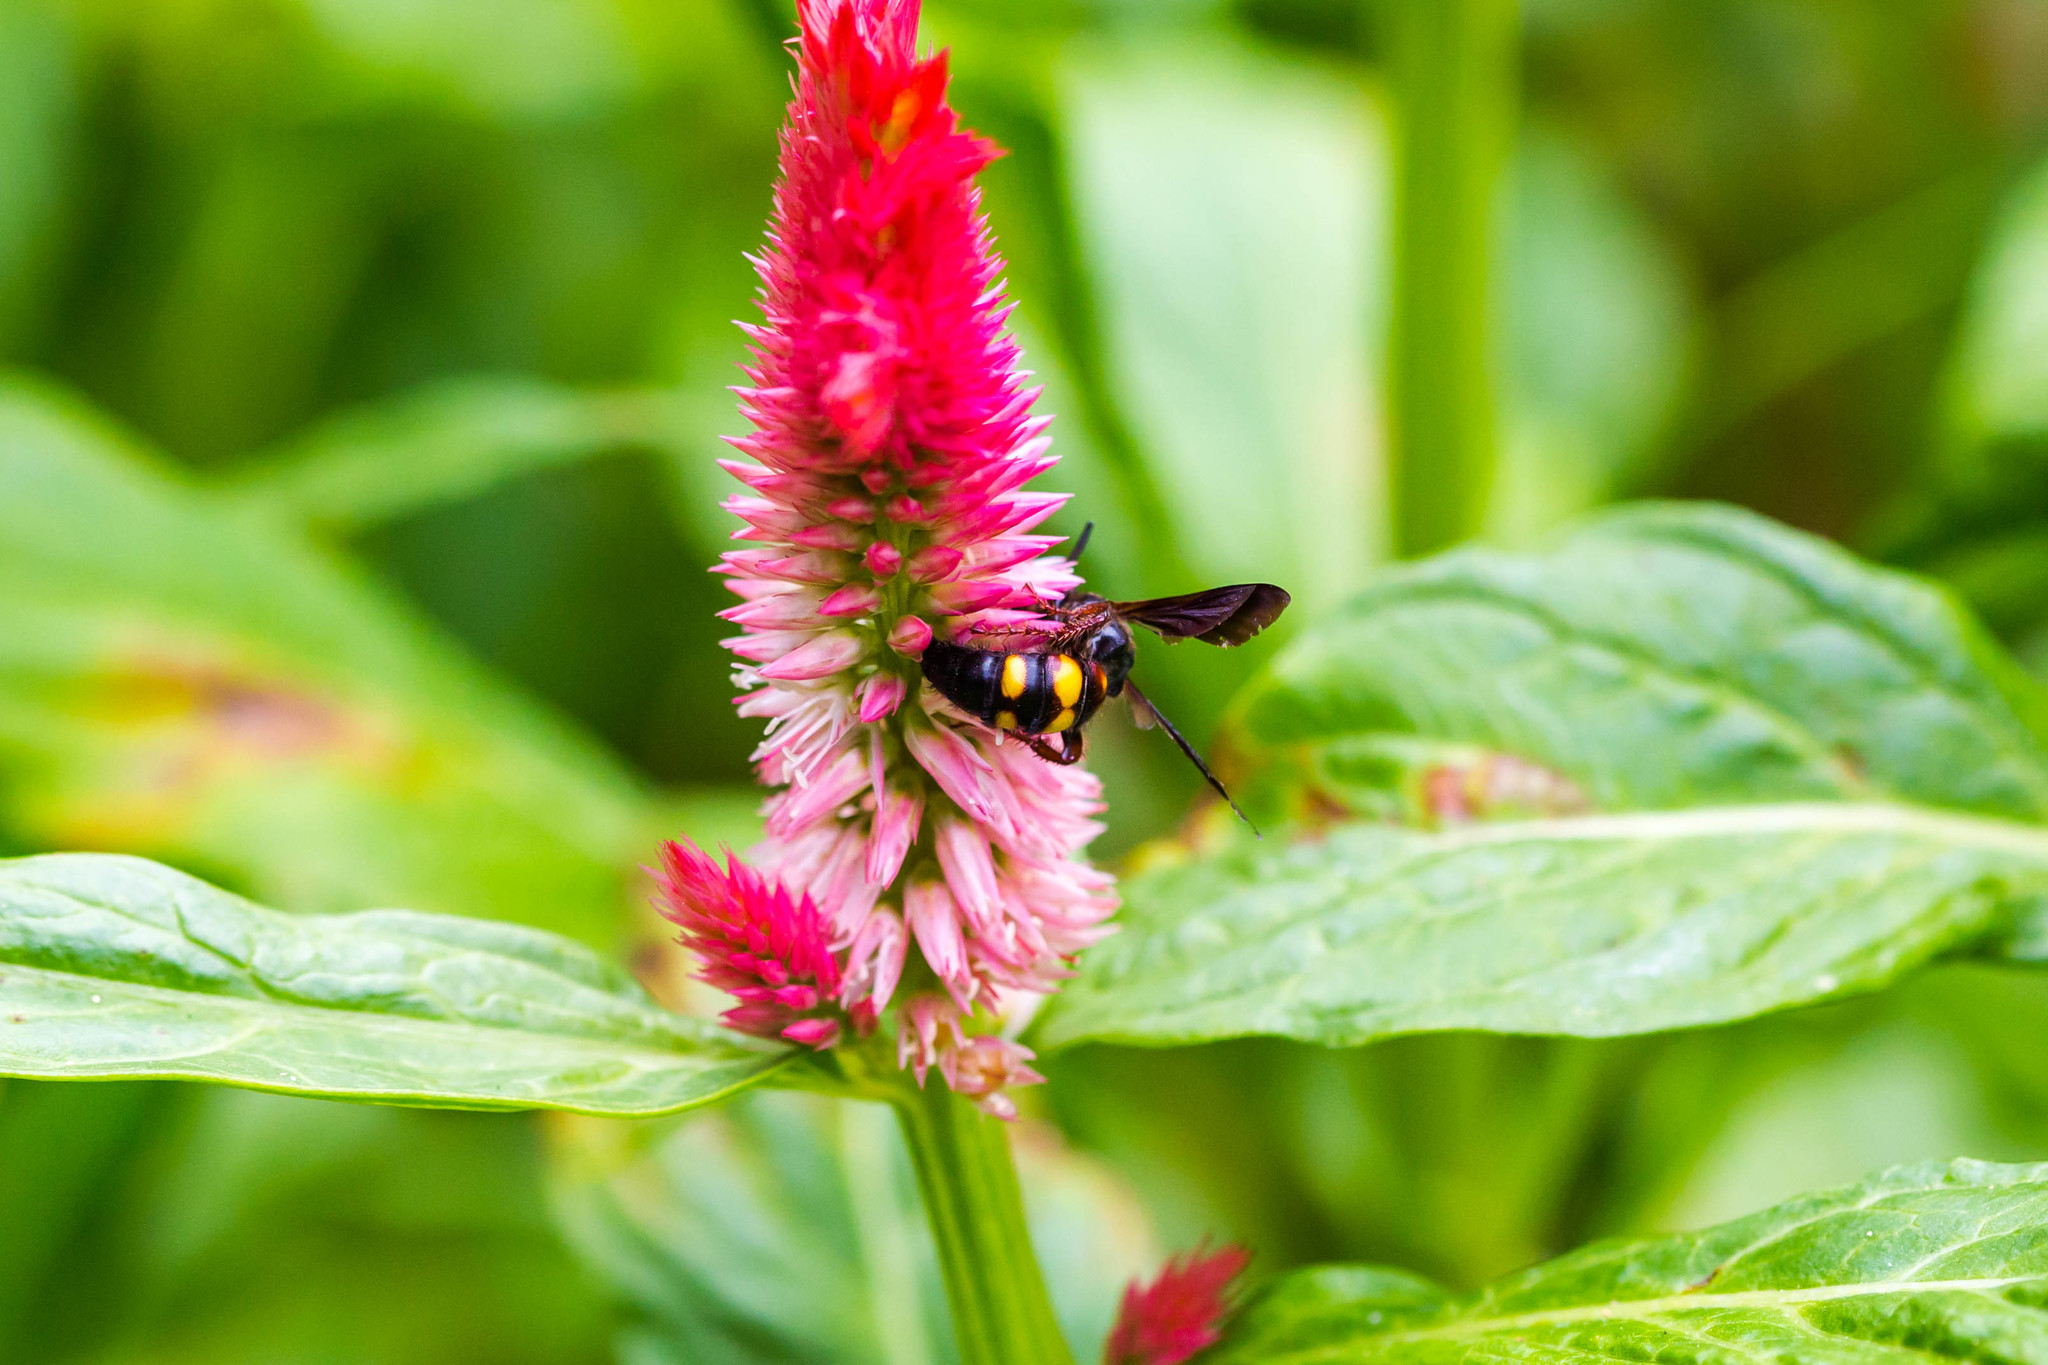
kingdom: Animalia
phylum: Arthropoda
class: Insecta
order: Hymenoptera
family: Scoliidae
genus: Scolia
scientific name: Scolia nobilitata
